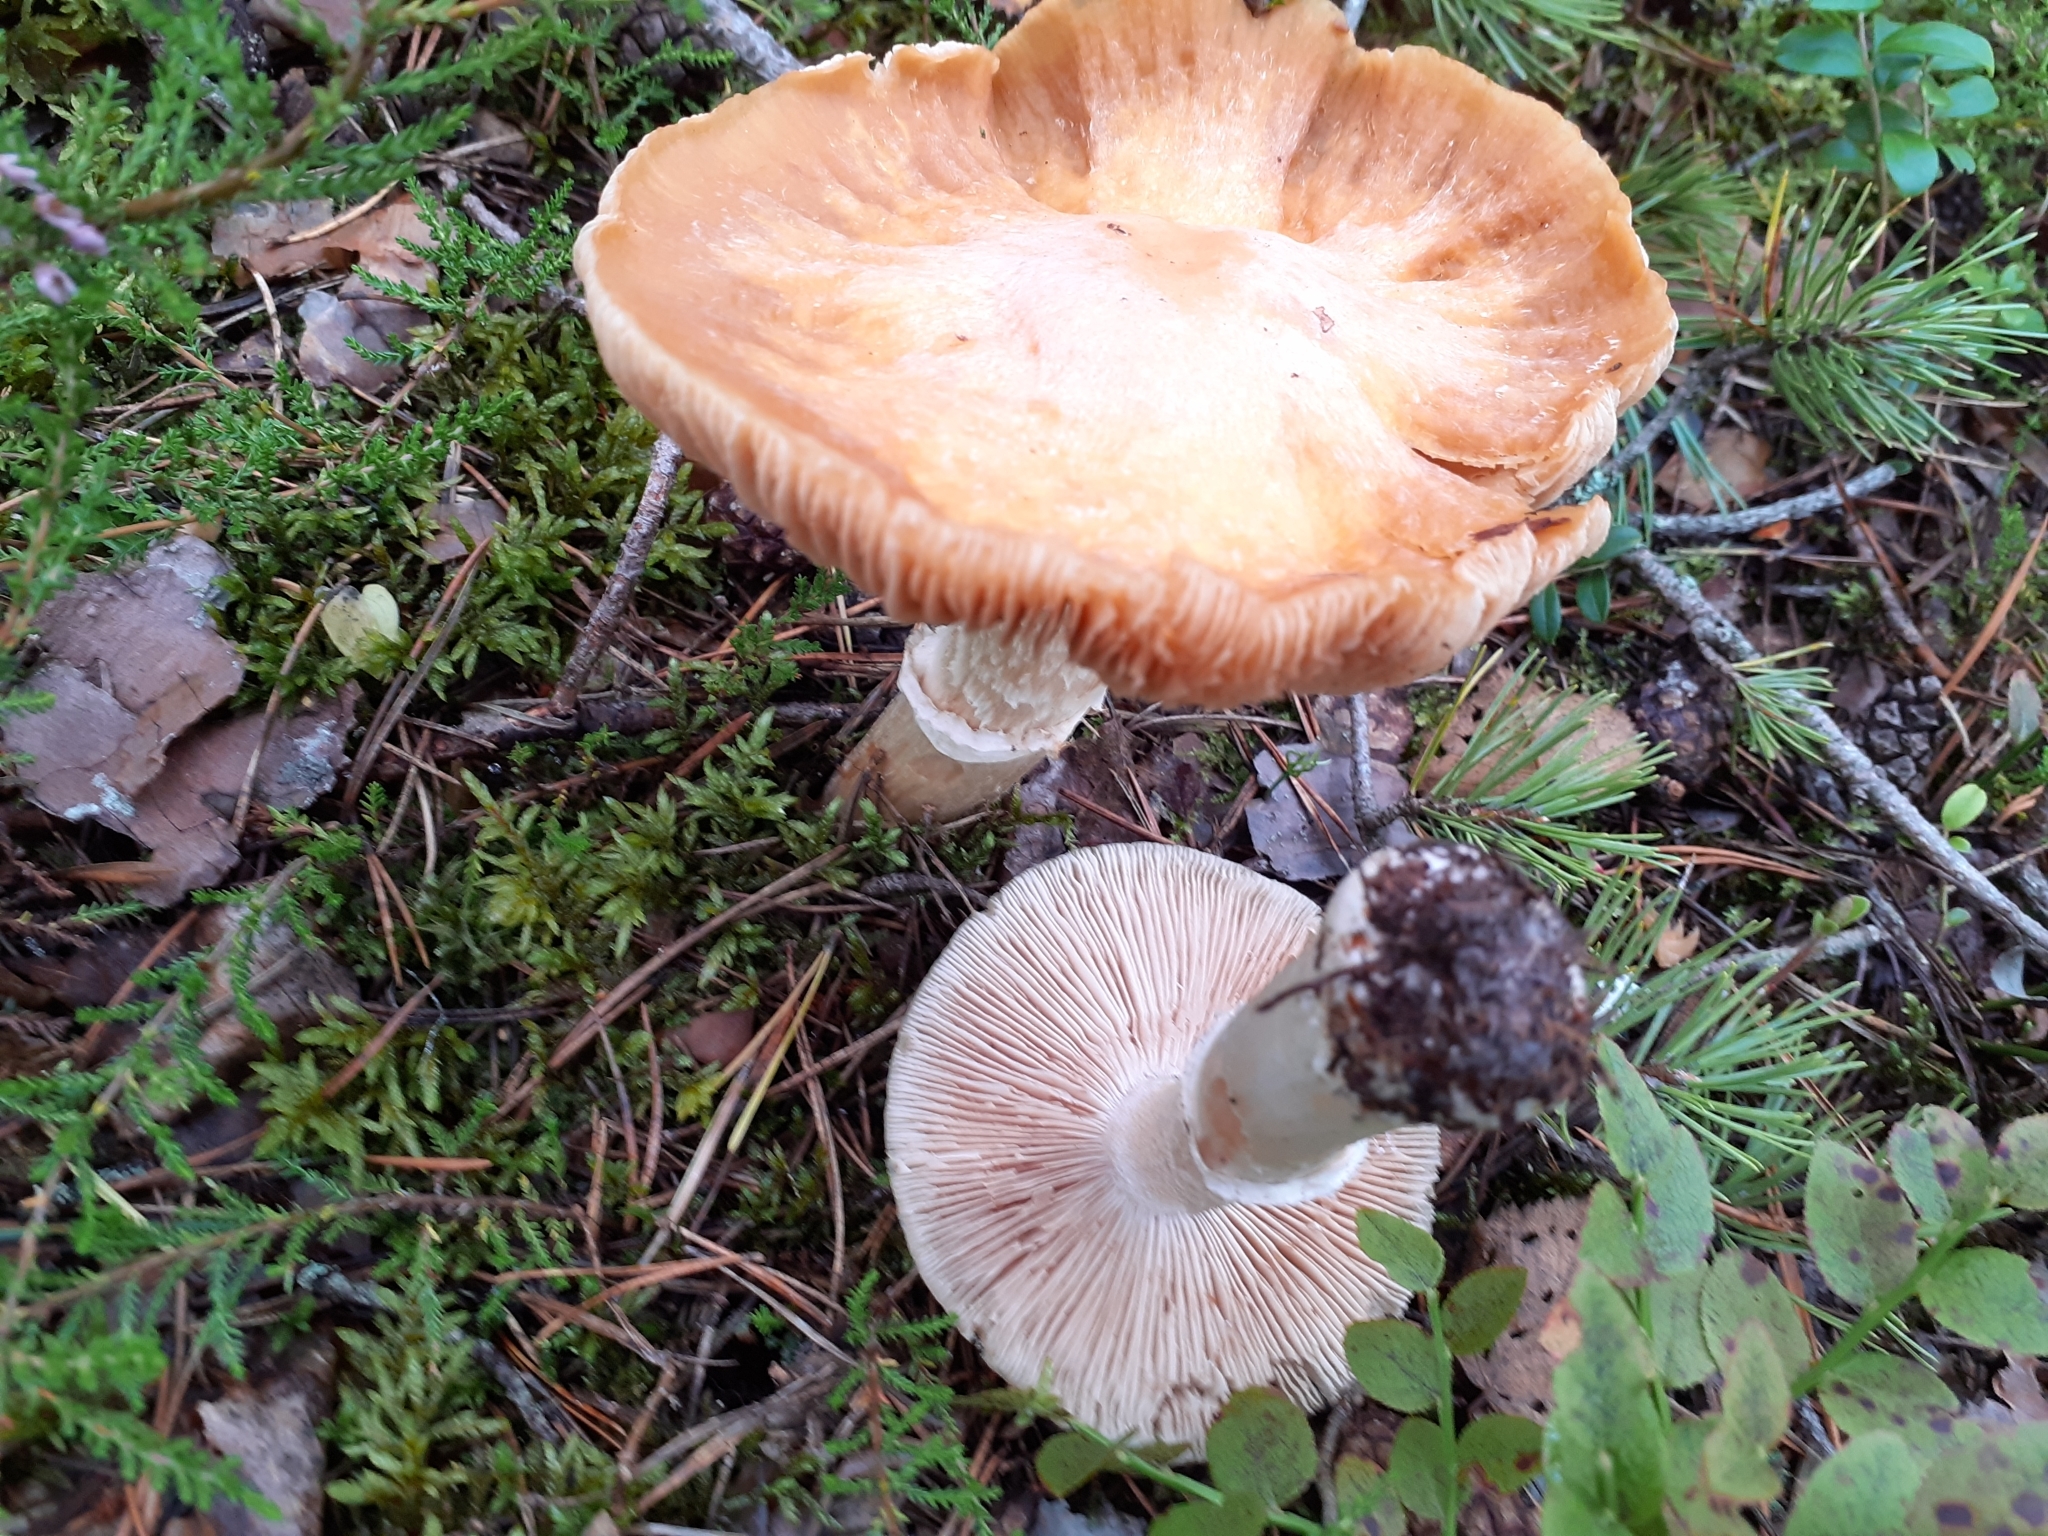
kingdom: Fungi
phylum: Basidiomycota
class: Agaricomycetes
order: Agaricales
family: Cortinariaceae
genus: Cortinarius
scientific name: Cortinarius caperatus
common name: The gypsy
